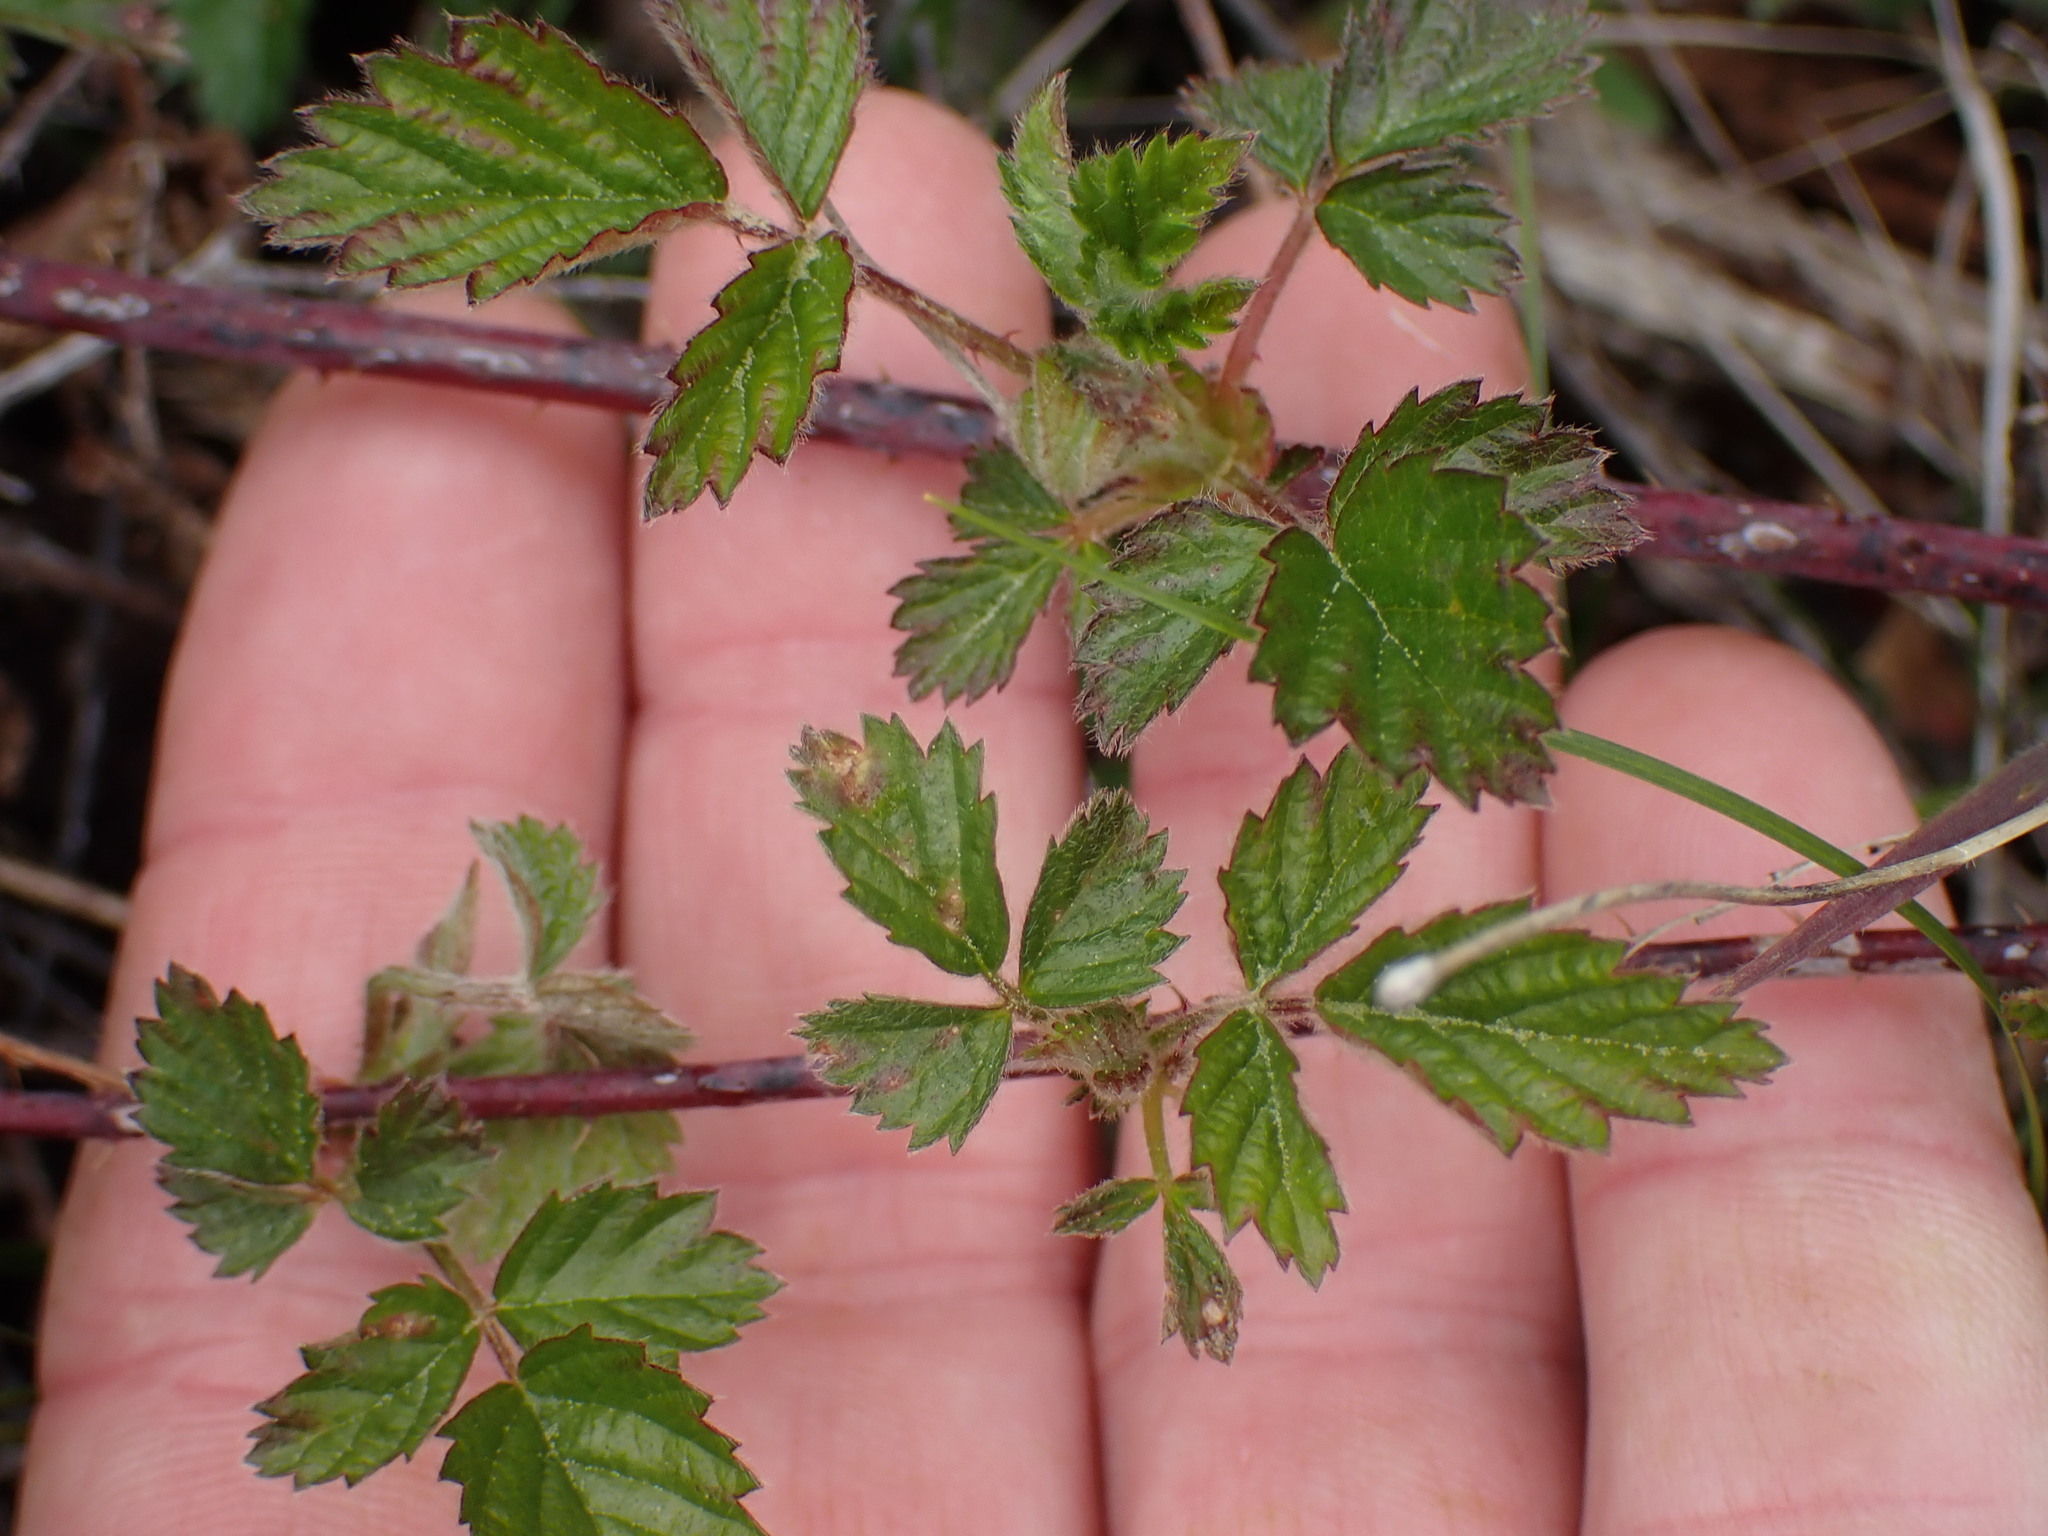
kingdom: Plantae
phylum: Tracheophyta
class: Magnoliopsida
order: Rosales
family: Rosaceae
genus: Rubus
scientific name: Rubus ursinus
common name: Pacific blackberry
